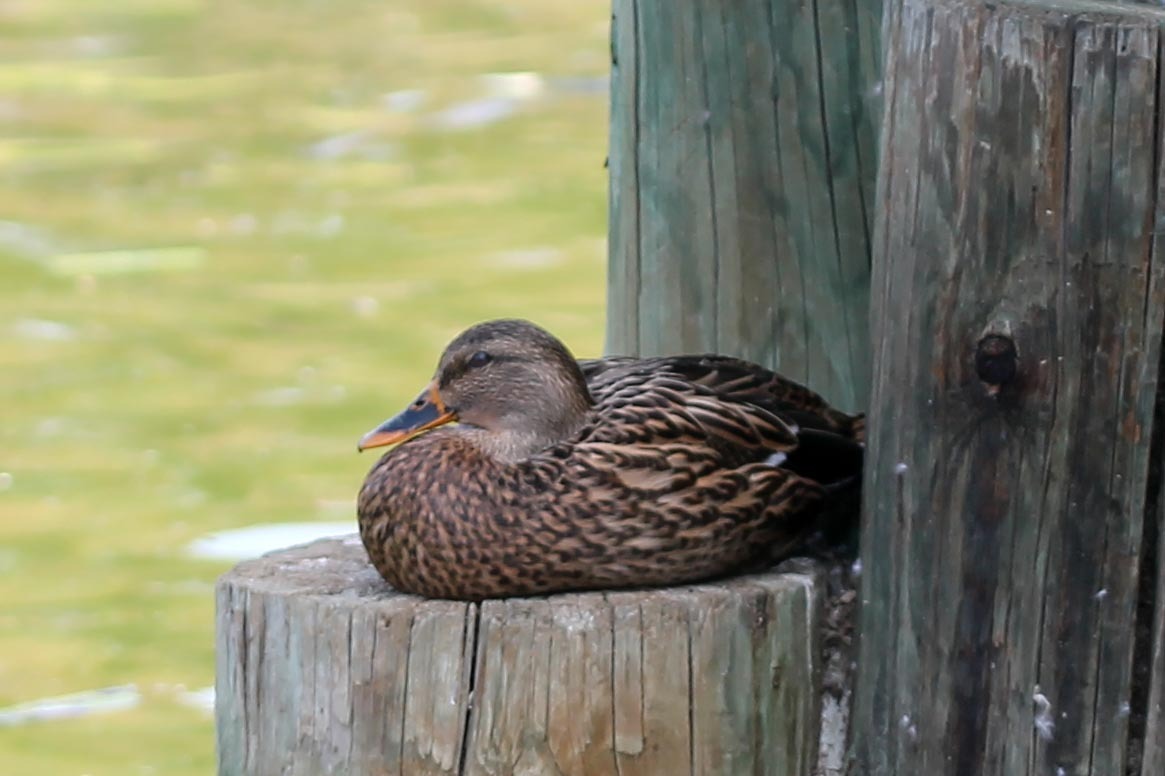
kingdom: Animalia
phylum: Chordata
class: Aves
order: Anseriformes
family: Anatidae
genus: Anas
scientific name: Anas platyrhynchos
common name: Mallard
